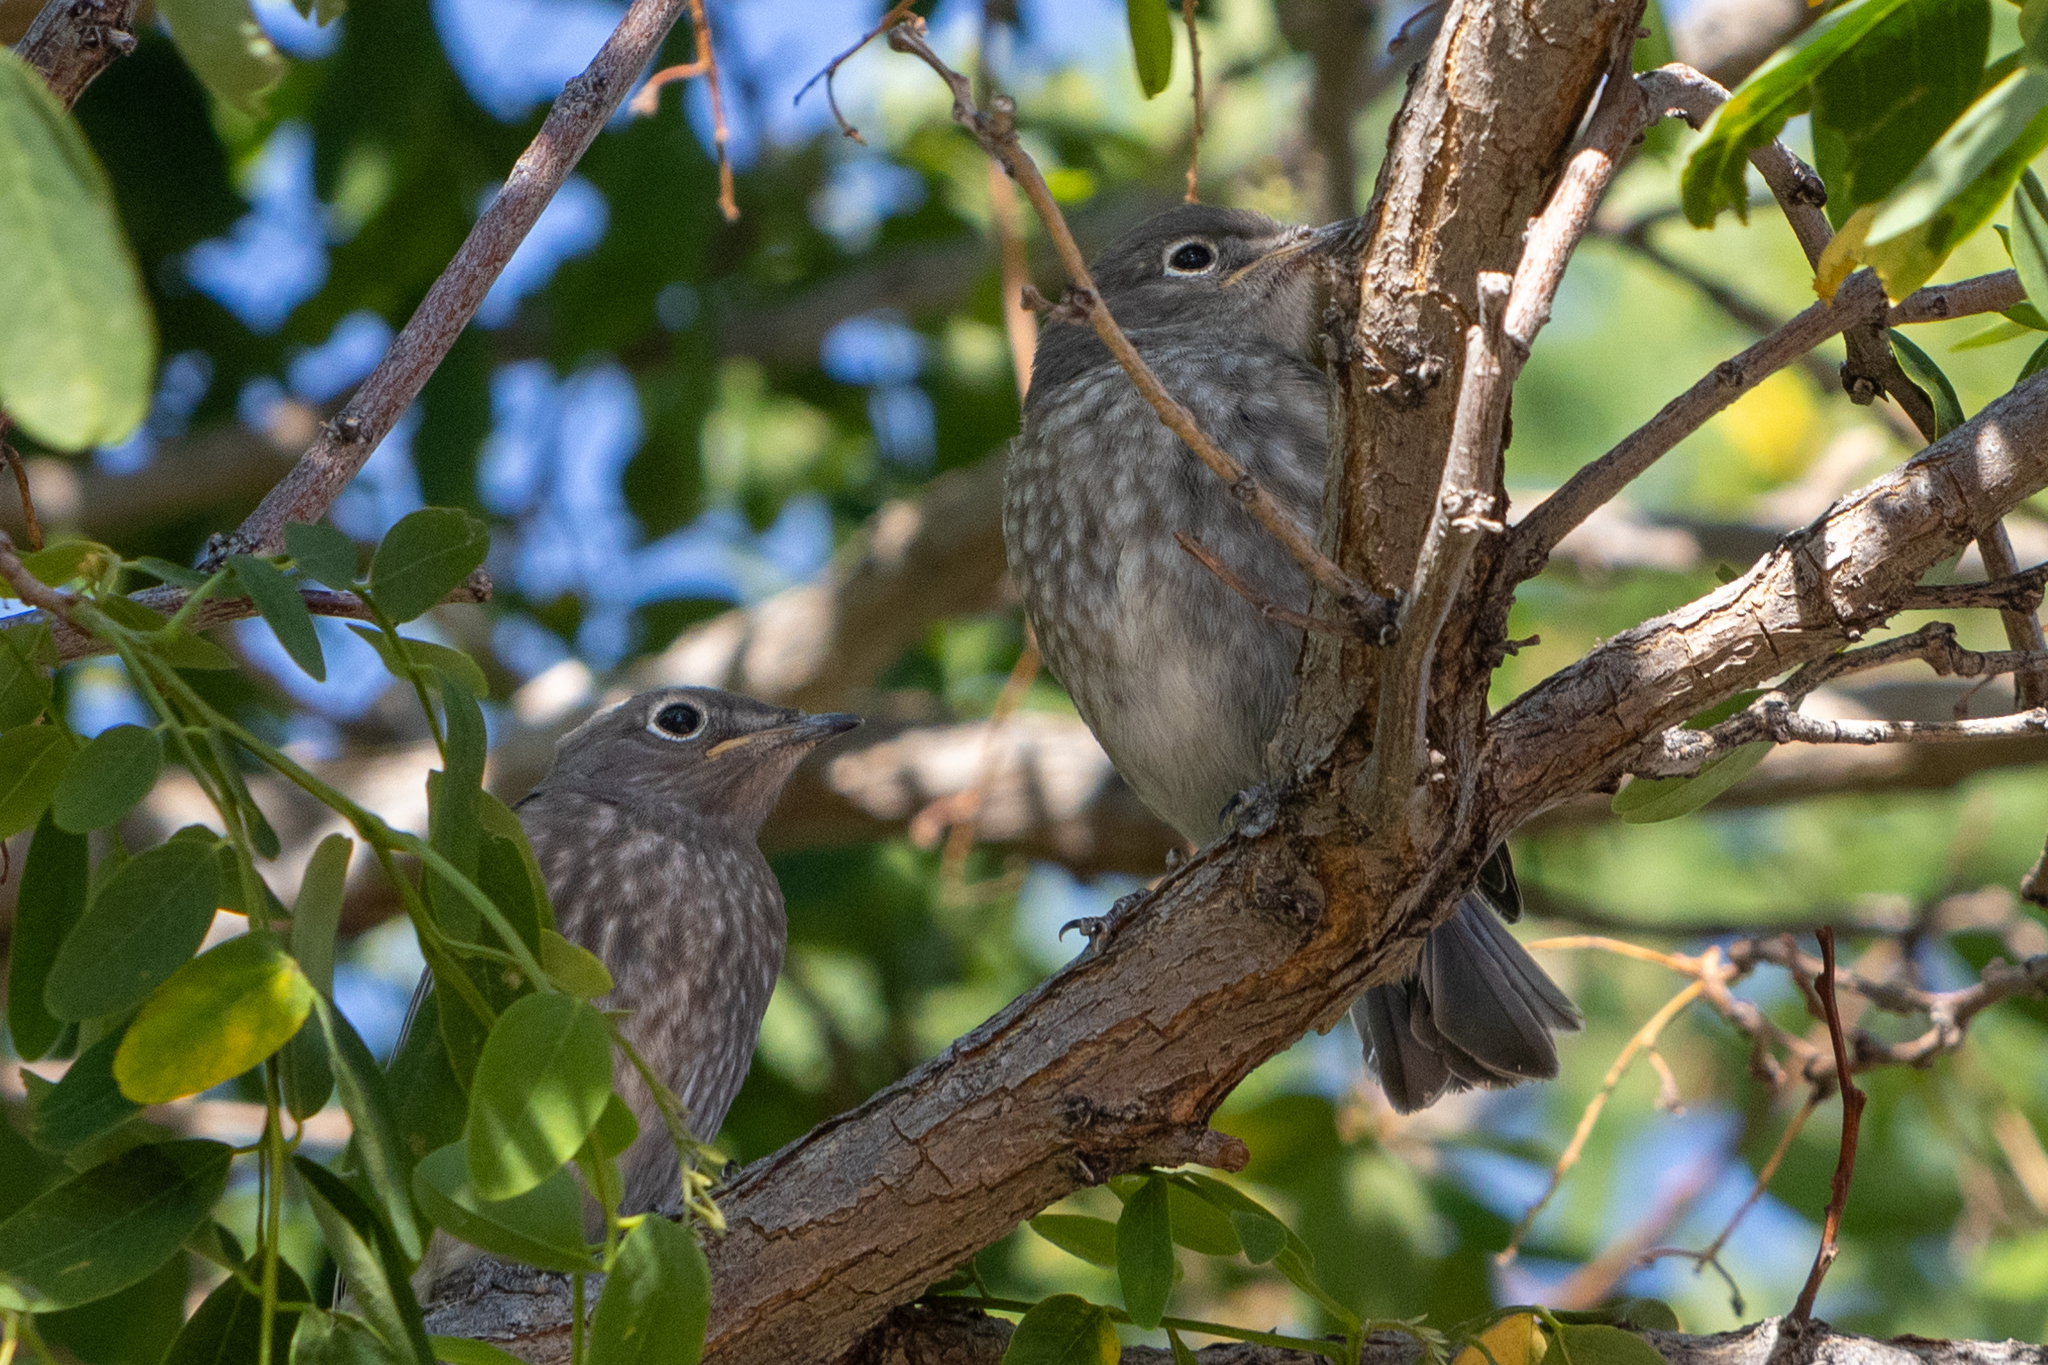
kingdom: Animalia
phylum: Chordata
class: Aves
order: Passeriformes
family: Turdidae
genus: Sialia
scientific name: Sialia currucoides
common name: Mountain bluebird
